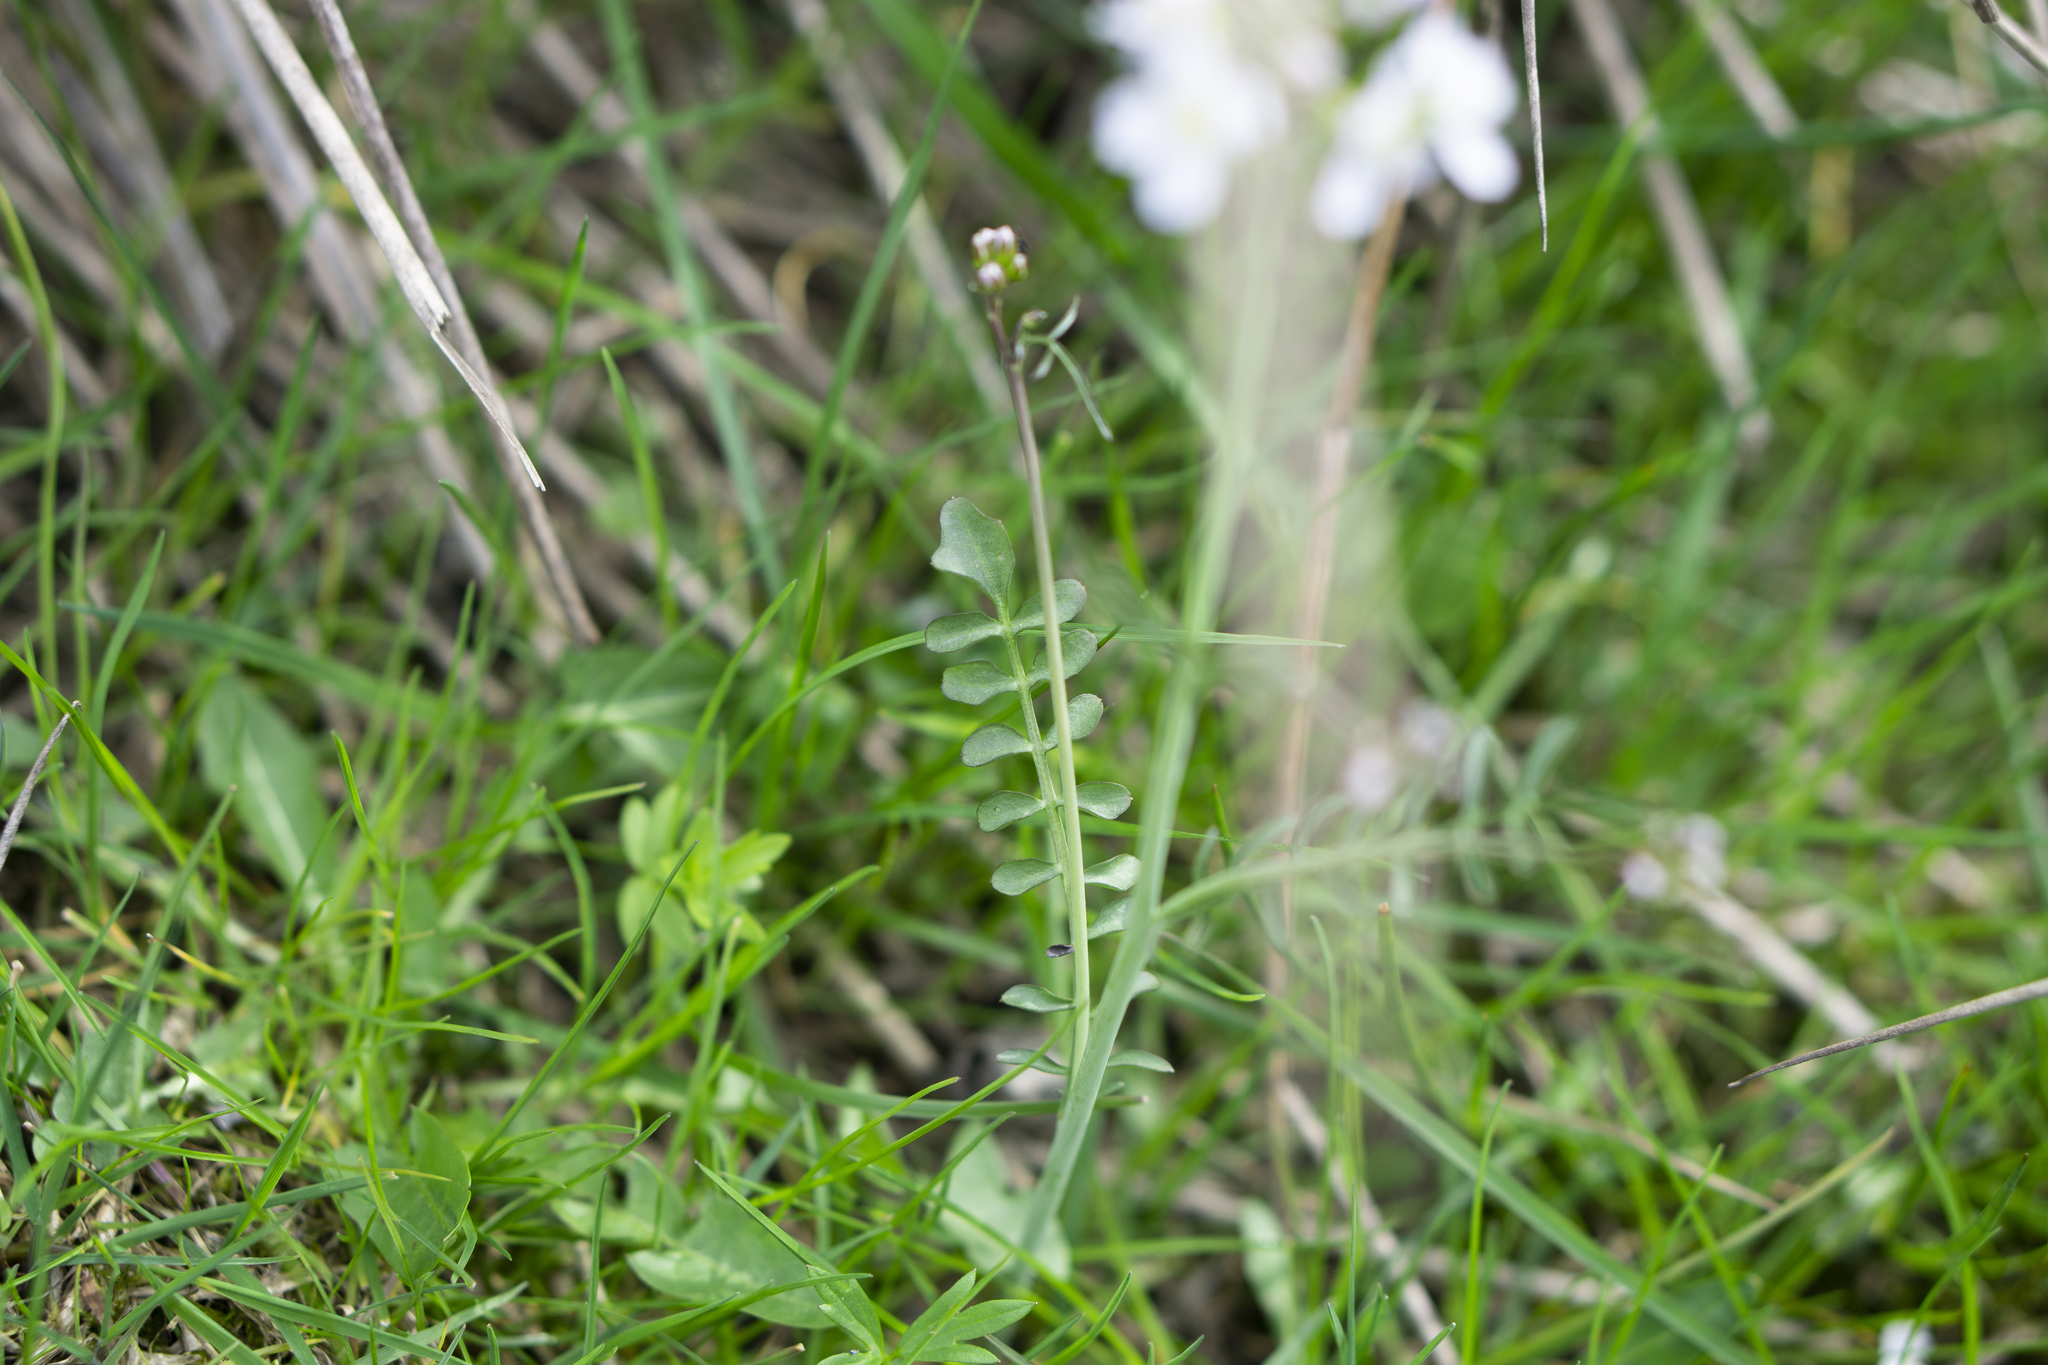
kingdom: Plantae
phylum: Tracheophyta
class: Magnoliopsida
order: Brassicales
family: Brassicaceae
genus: Cardamine
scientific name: Cardamine pratensis
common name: Cuckoo flower
